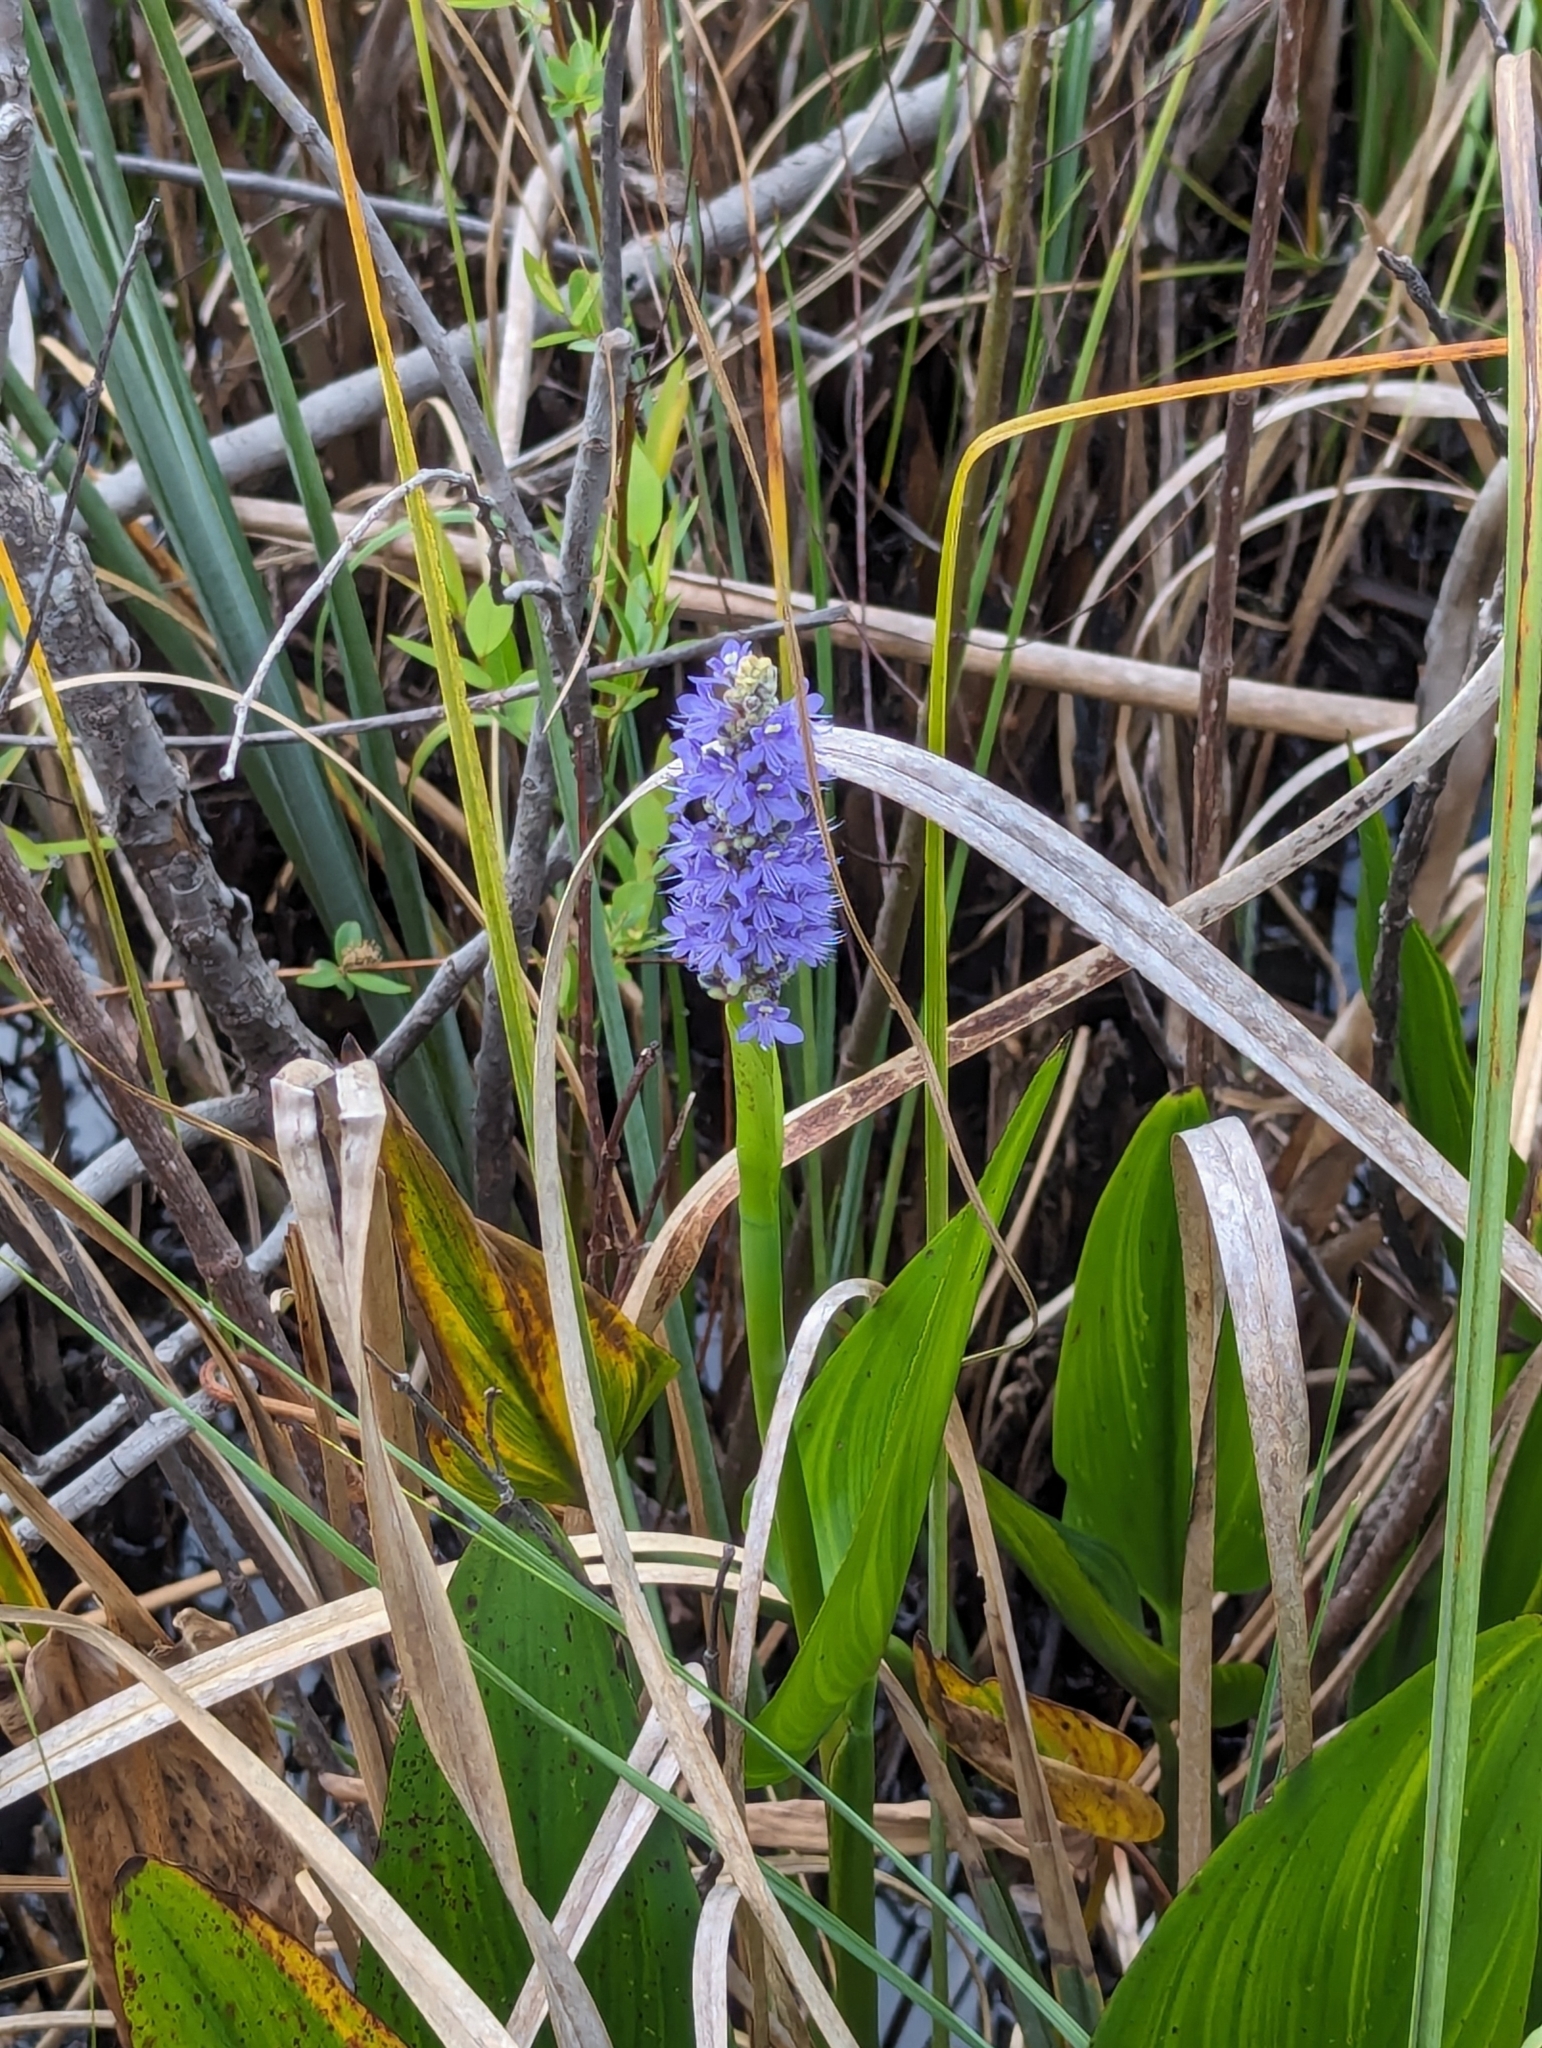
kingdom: Plantae
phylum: Tracheophyta
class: Liliopsida
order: Commelinales
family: Pontederiaceae
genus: Pontederia
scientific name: Pontederia cordata
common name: Pickerelweed
